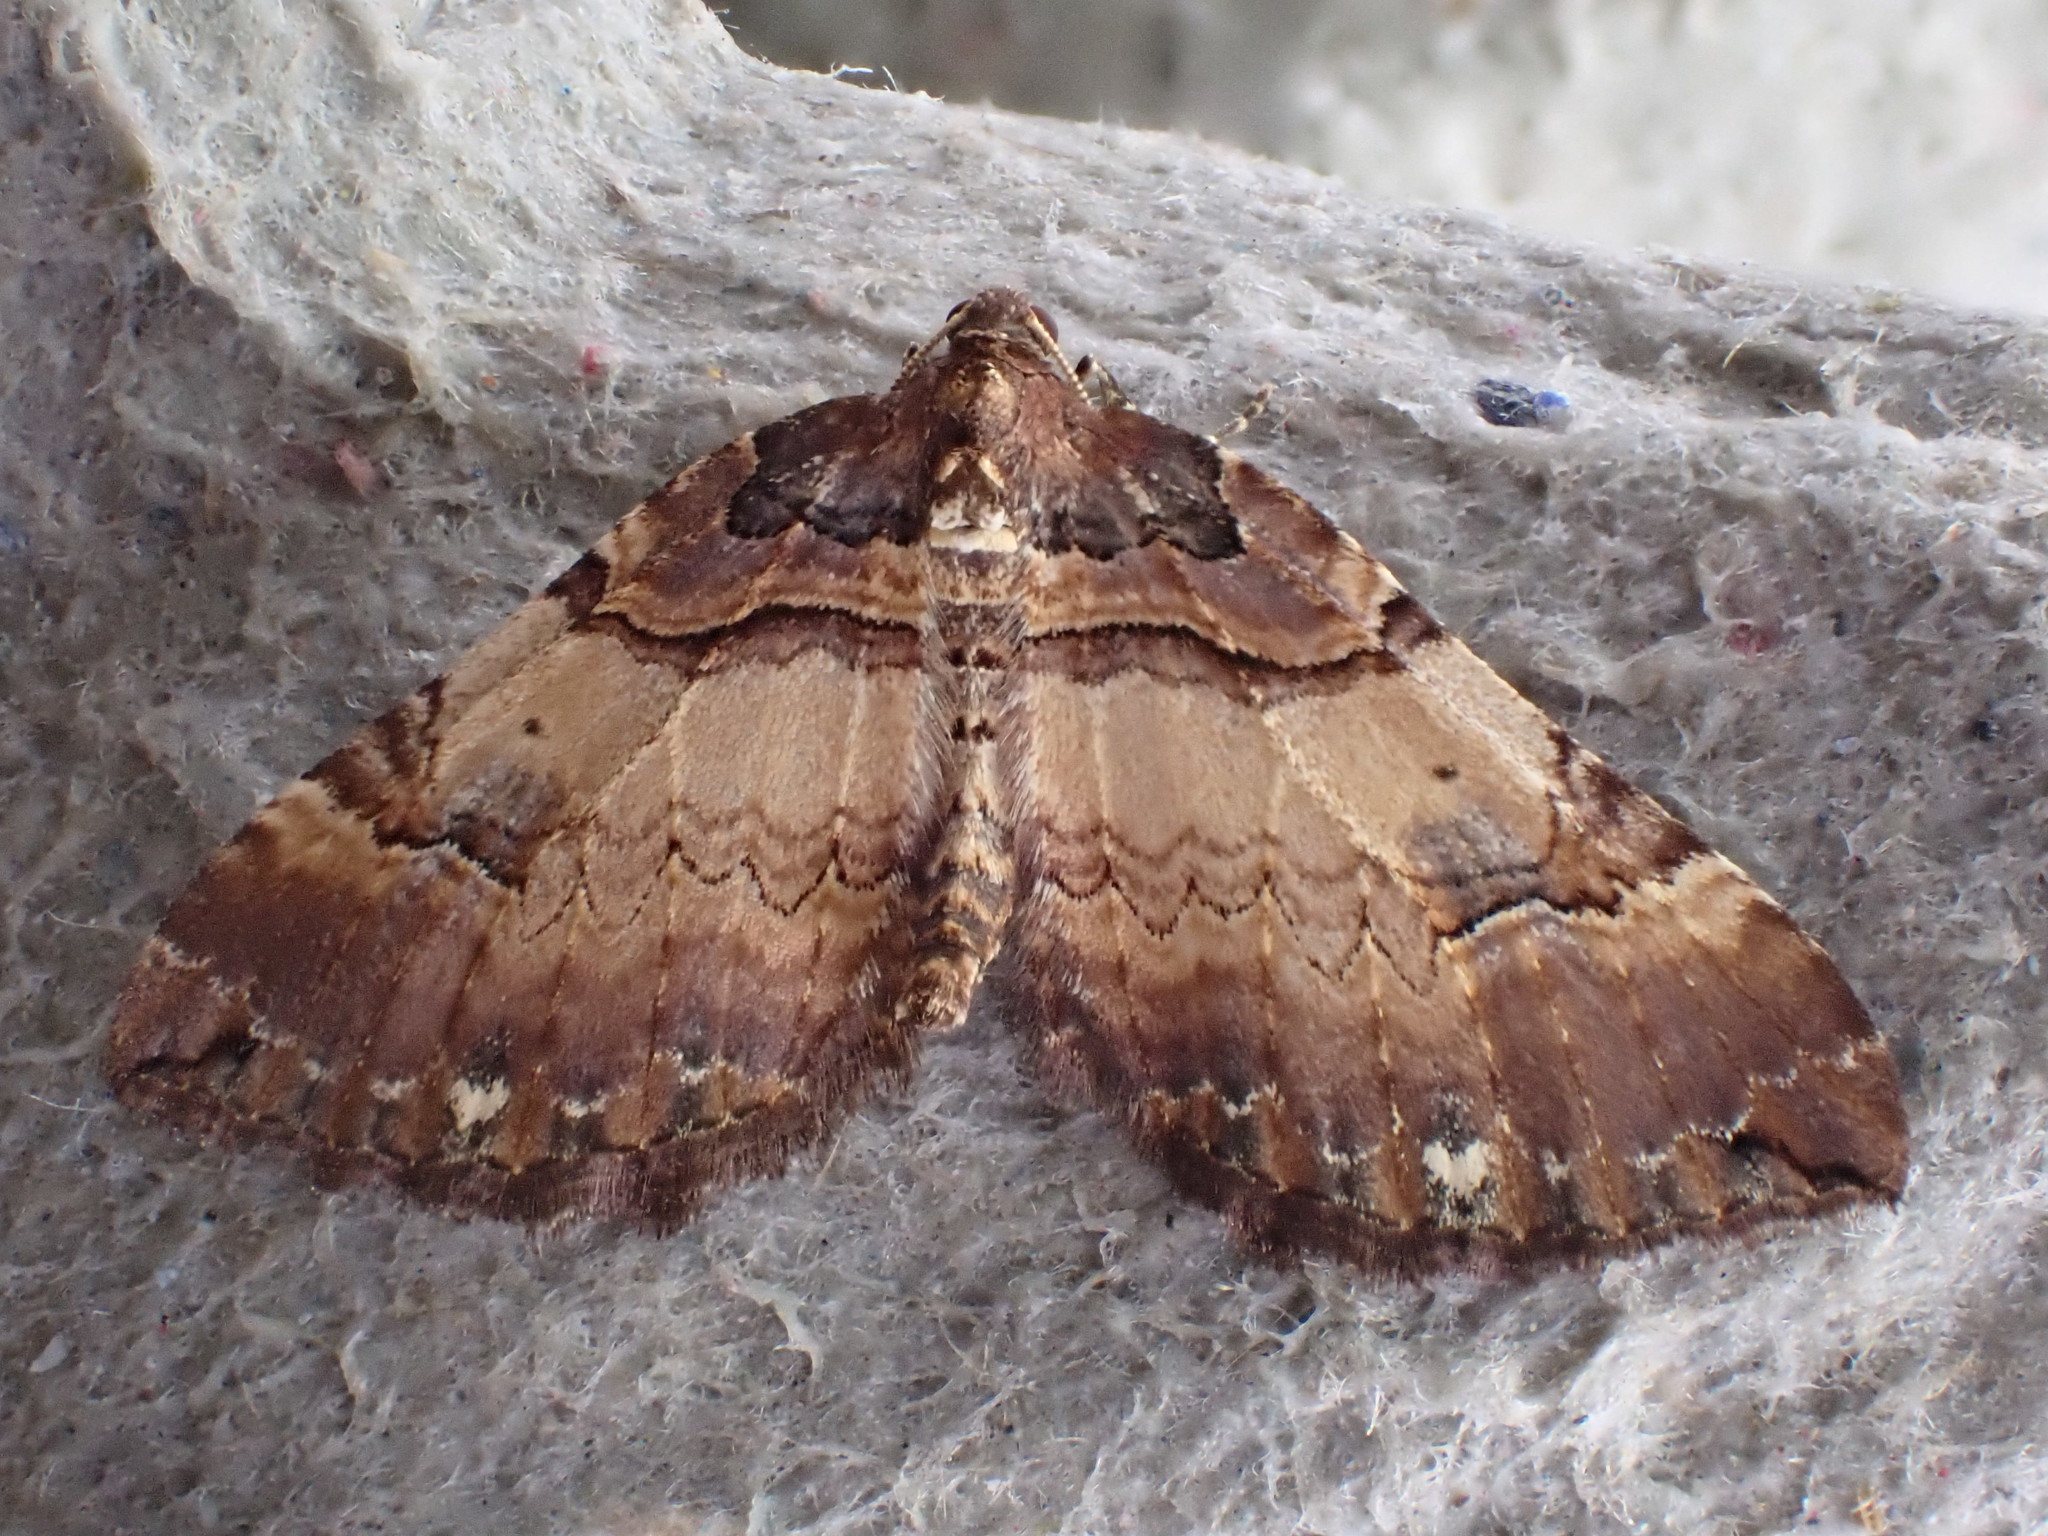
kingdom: Animalia
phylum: Arthropoda
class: Insecta
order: Lepidoptera
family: Geometridae
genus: Anticlea
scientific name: Anticlea badiata
